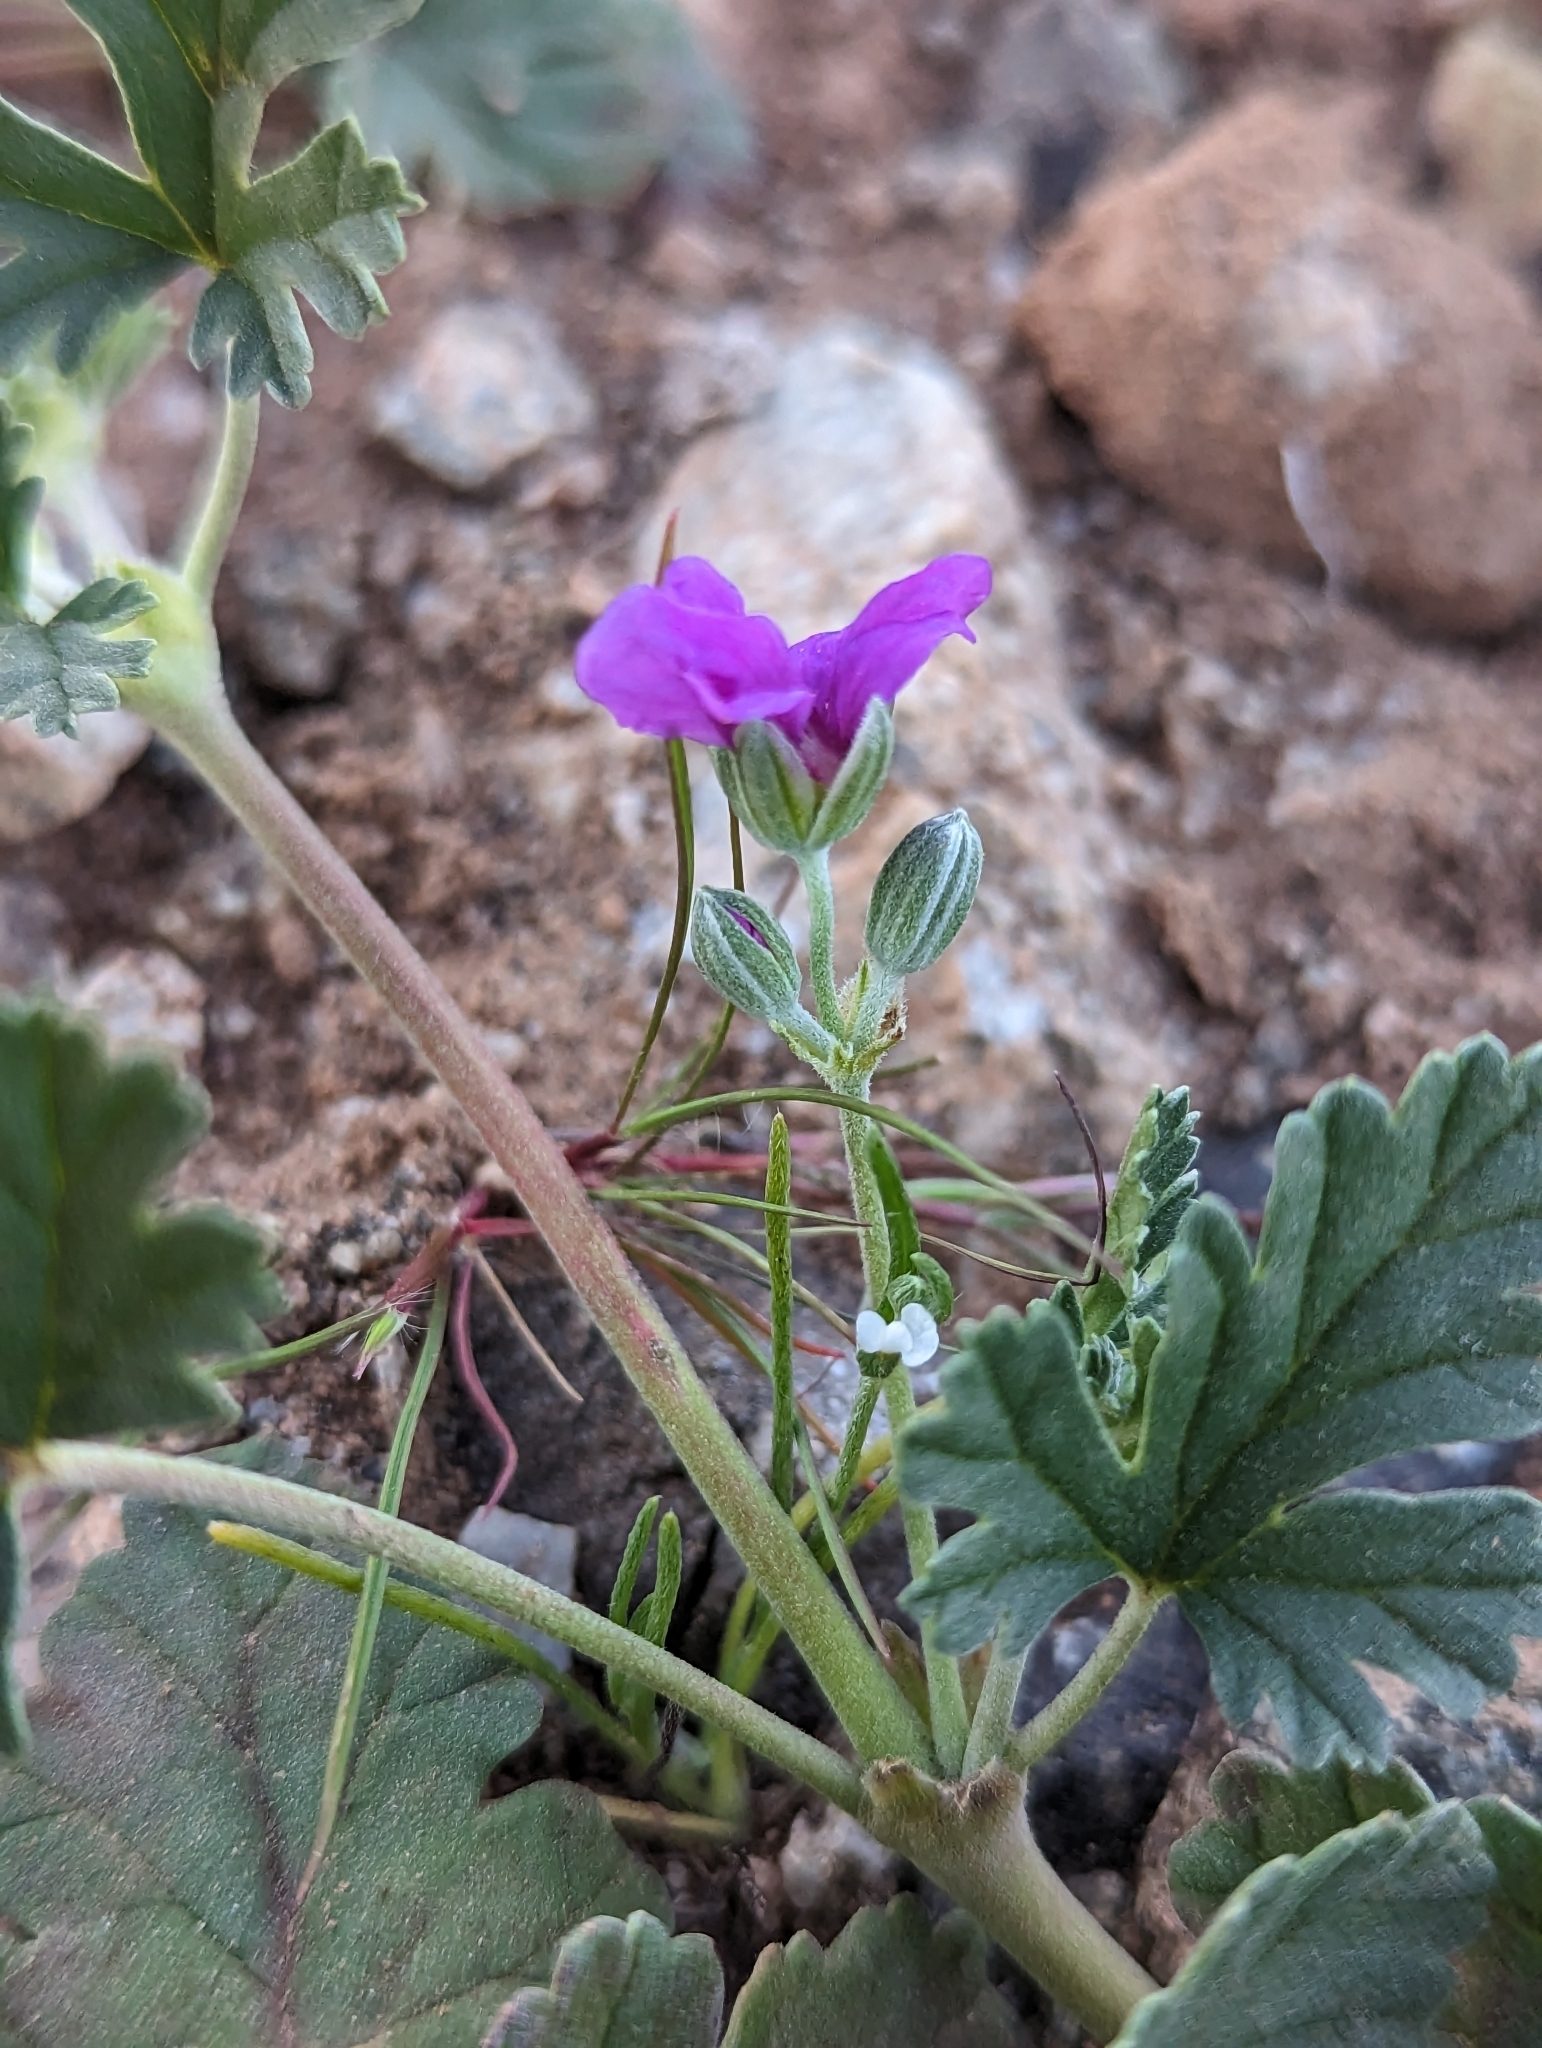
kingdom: Plantae
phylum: Tracheophyta
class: Magnoliopsida
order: Geraniales
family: Geraniaceae
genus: Erodium
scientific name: Erodium texanum
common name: Texas stork's-bill
